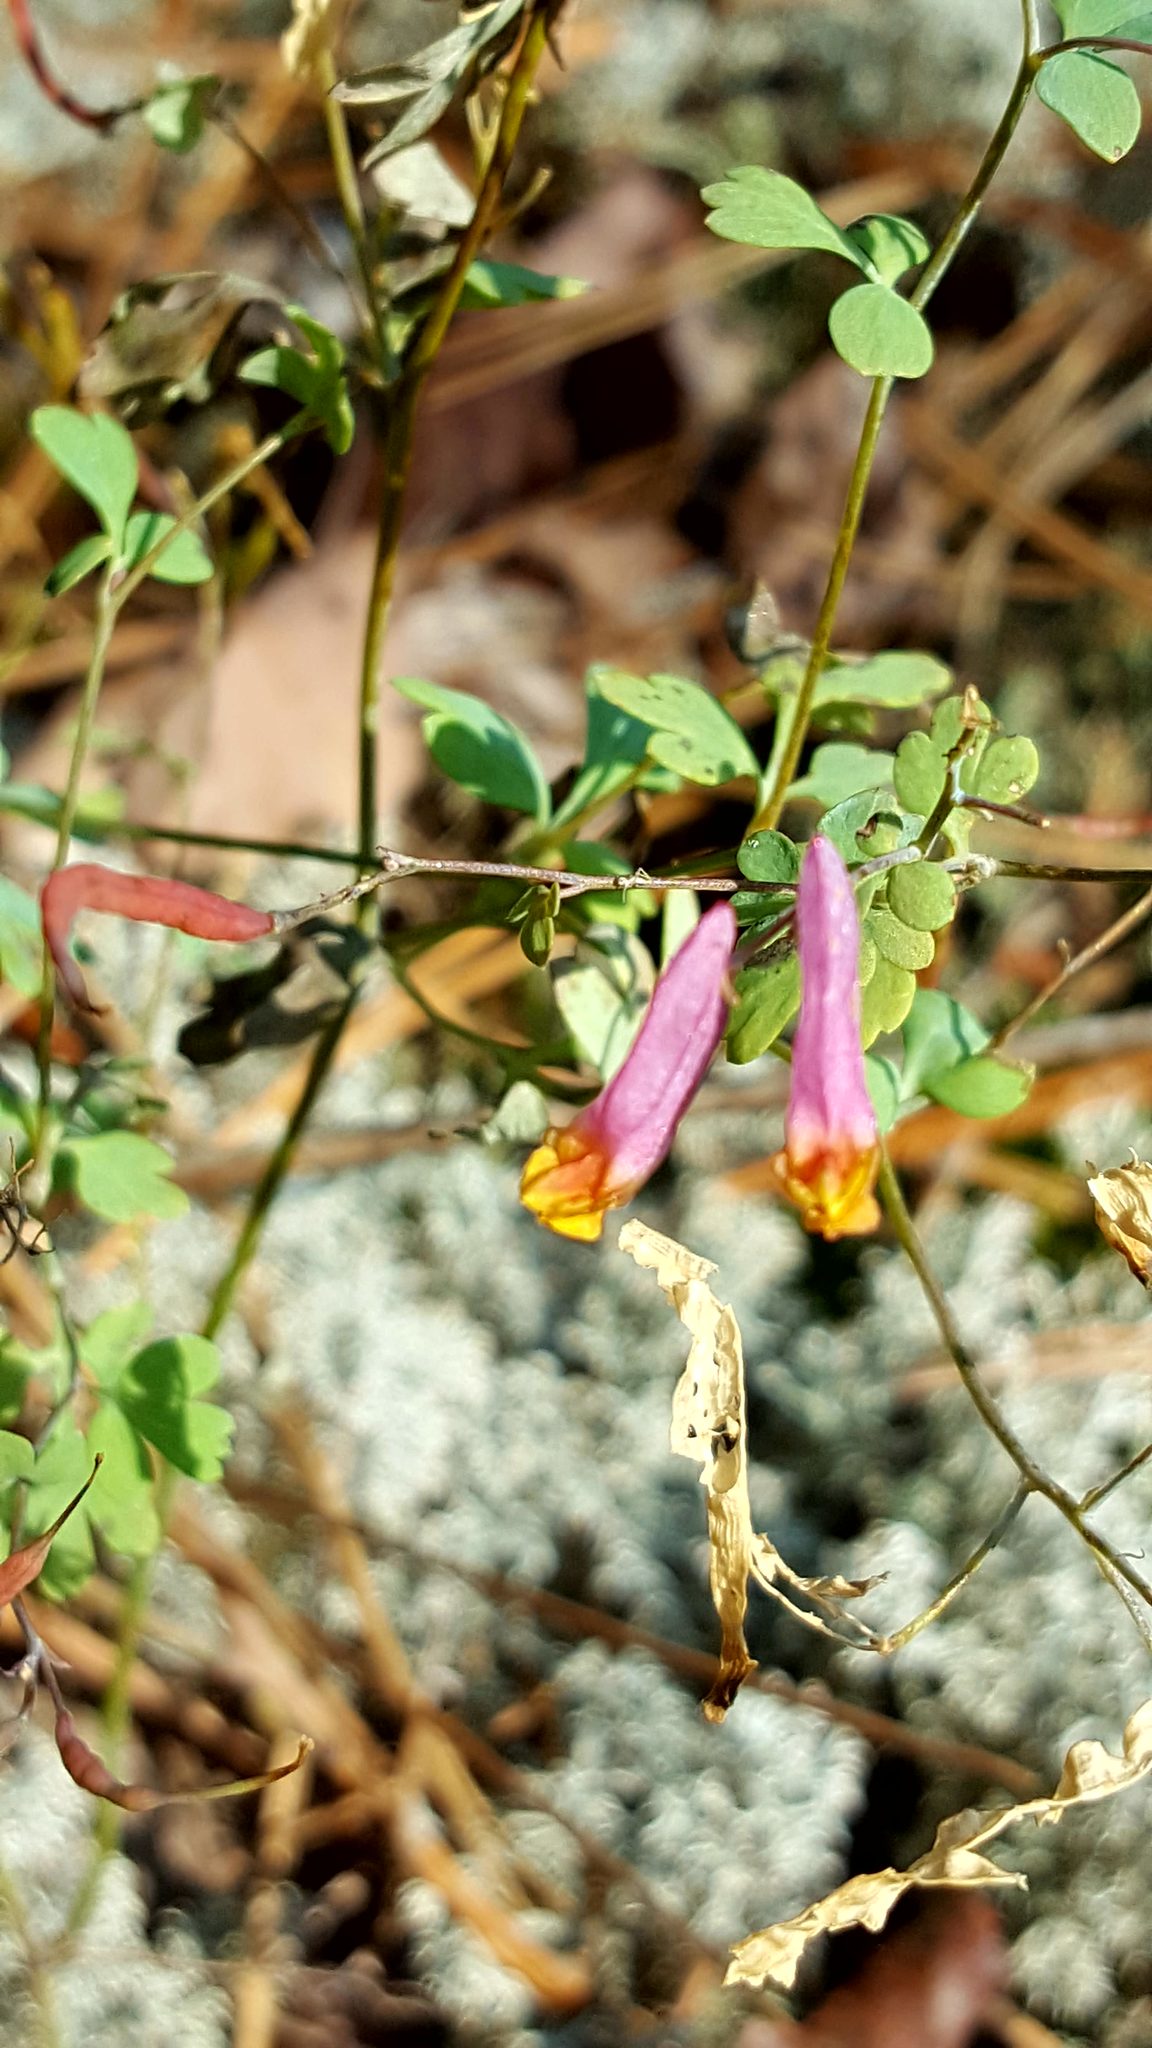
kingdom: Plantae
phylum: Tracheophyta
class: Magnoliopsida
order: Ranunculales
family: Papaveraceae
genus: Capnoides
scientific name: Capnoides sempervirens
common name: Rock harlequin
